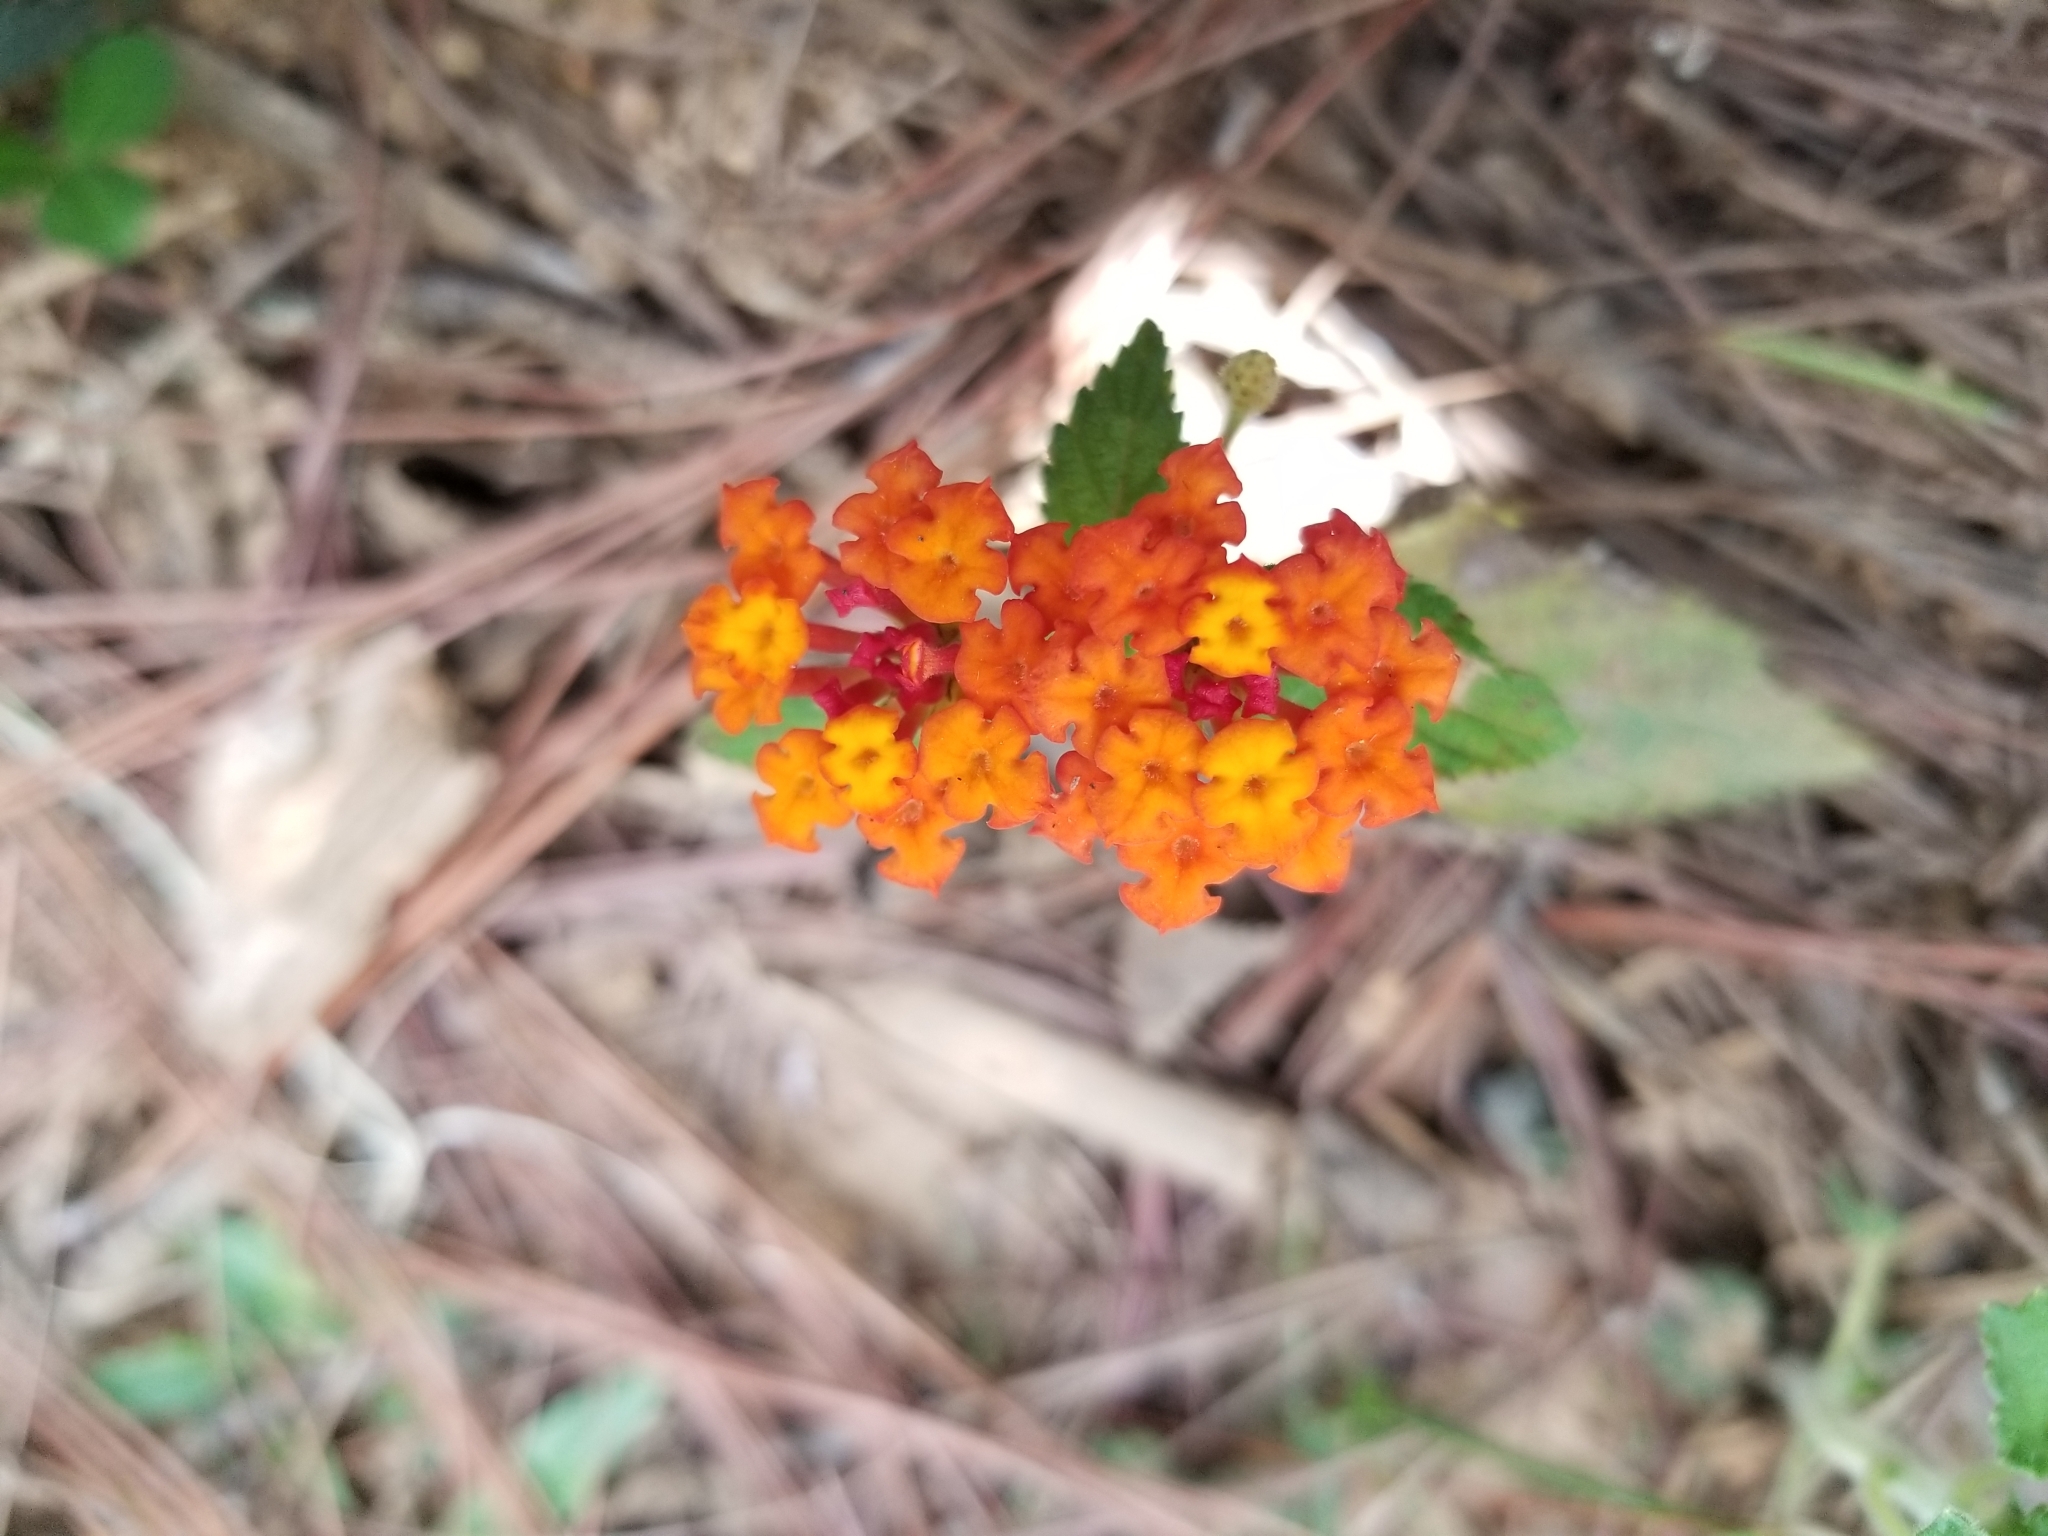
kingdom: Plantae
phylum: Tracheophyta
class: Magnoliopsida
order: Lamiales
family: Verbenaceae
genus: Lantana
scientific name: Lantana camara
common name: Lantana
